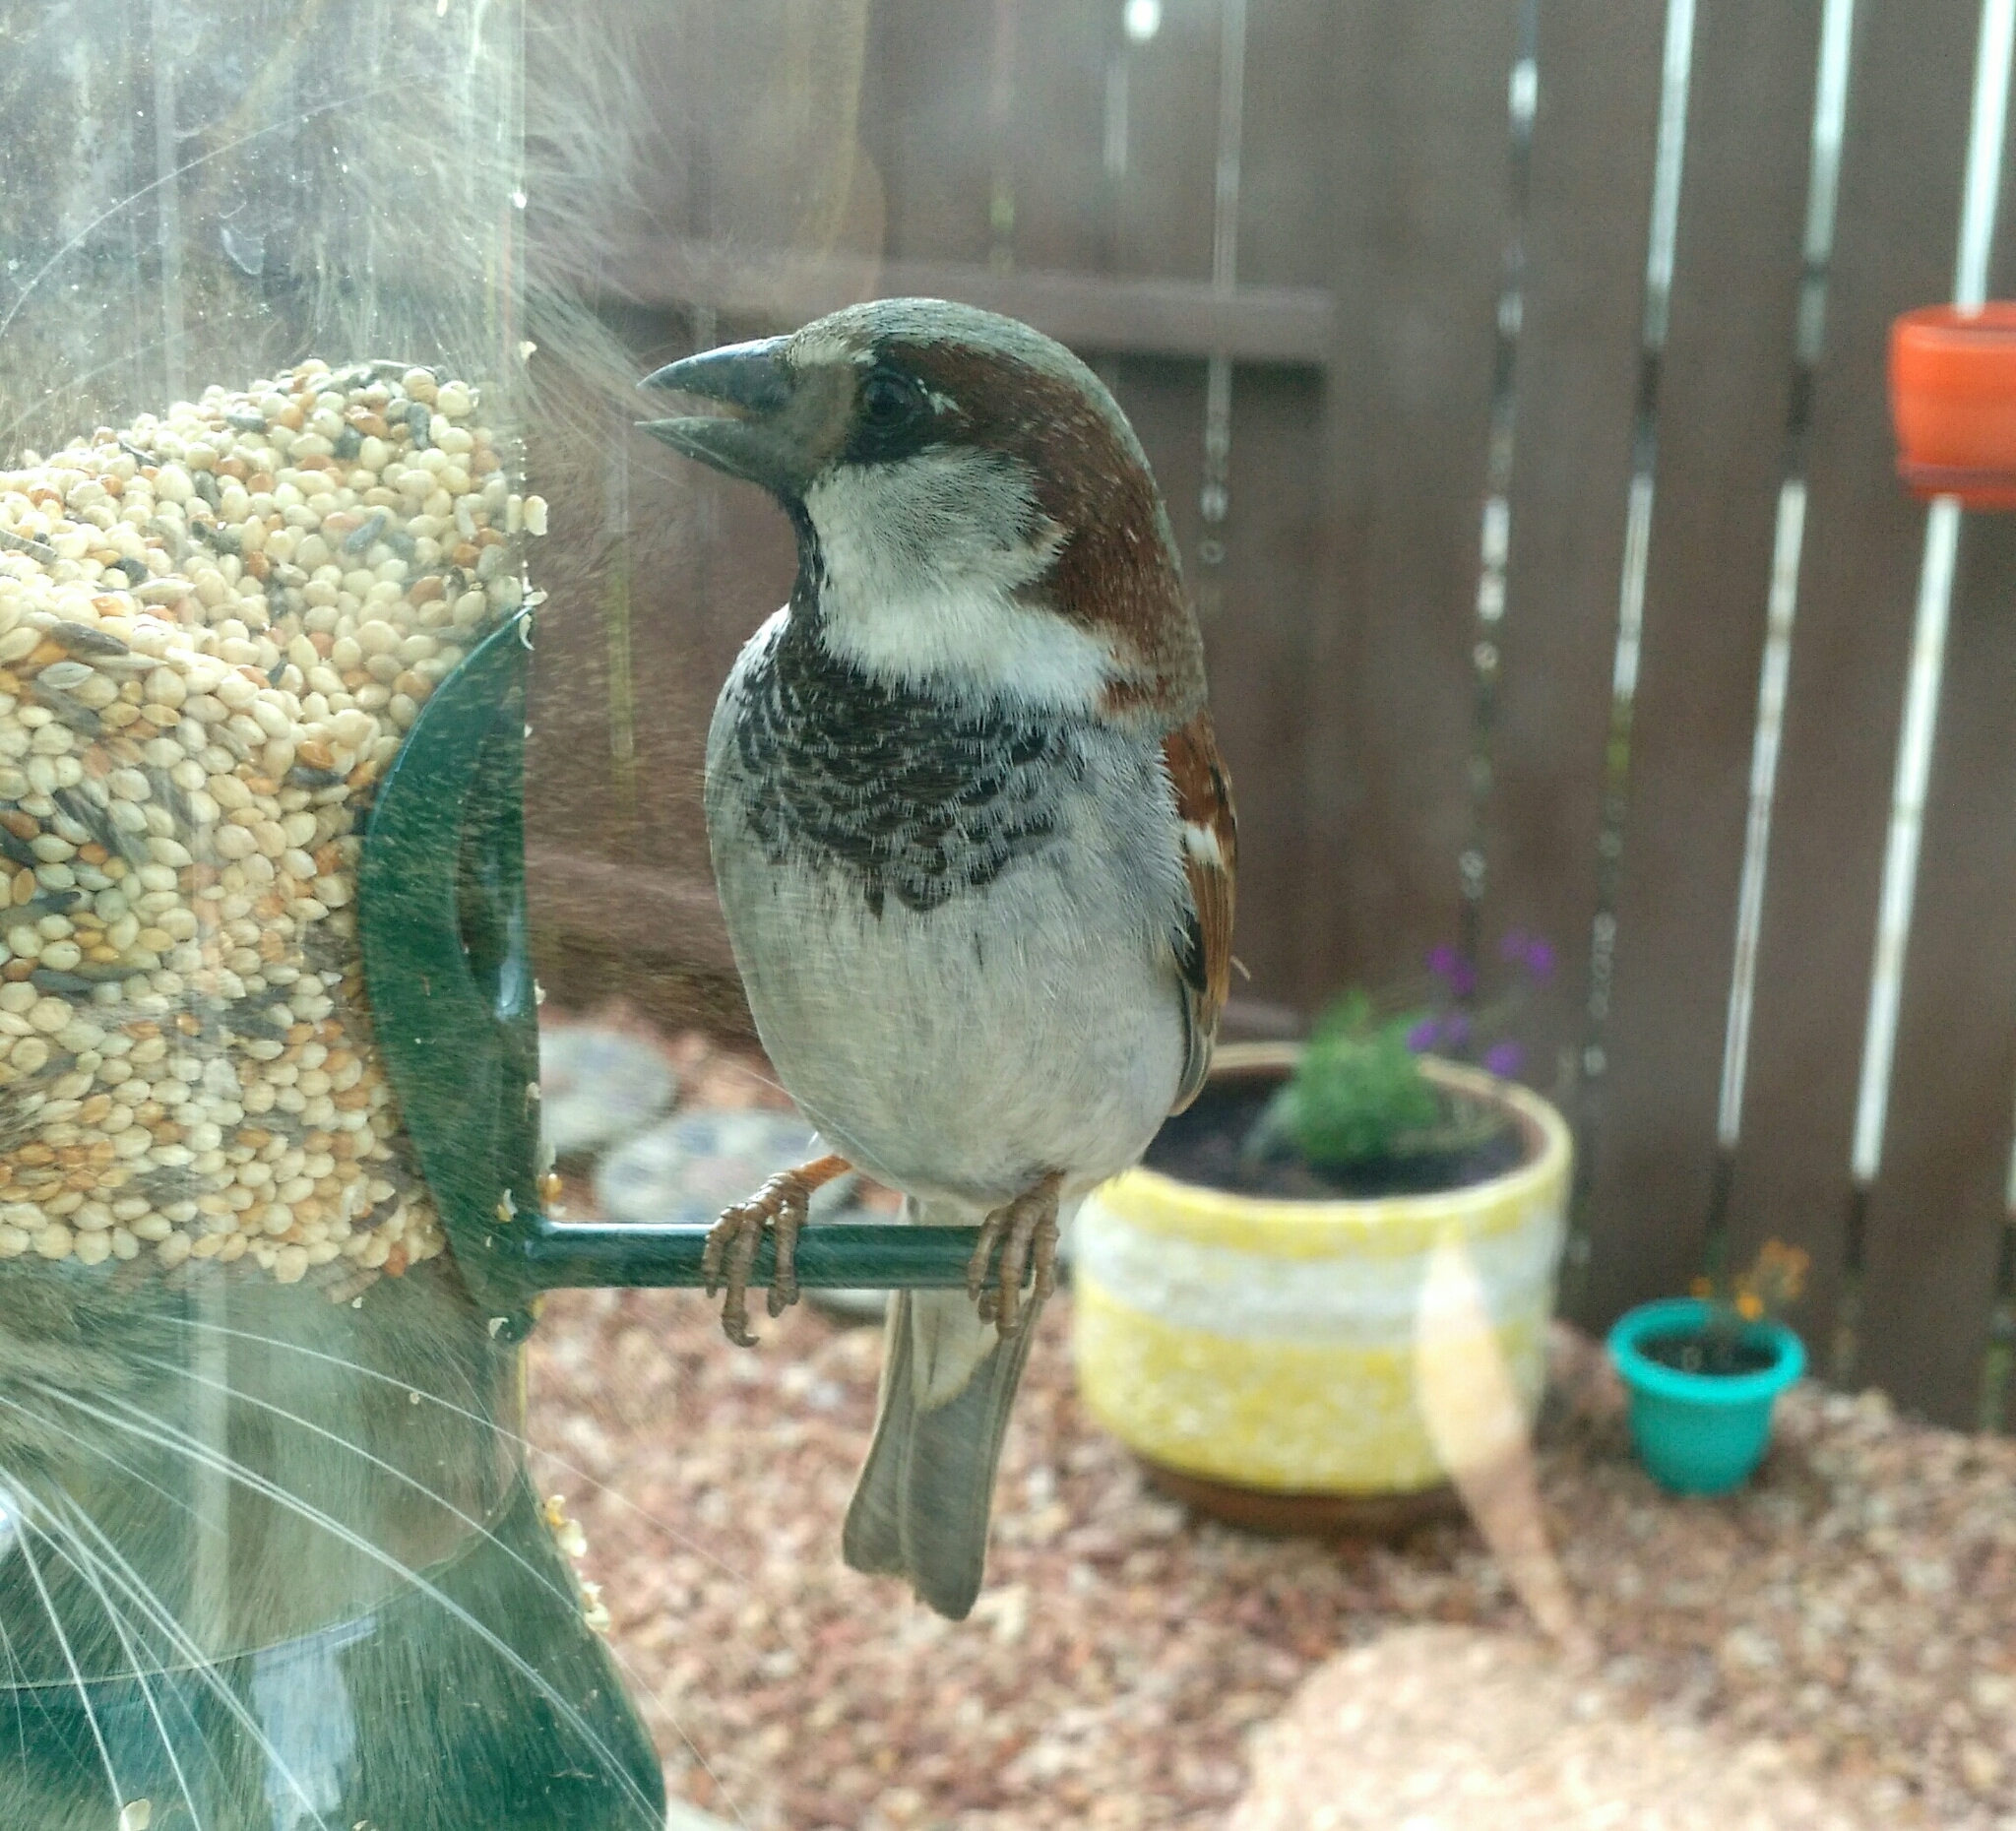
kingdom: Animalia
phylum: Chordata
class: Aves
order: Passeriformes
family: Passeridae
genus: Passer
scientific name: Passer domesticus
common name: House sparrow
